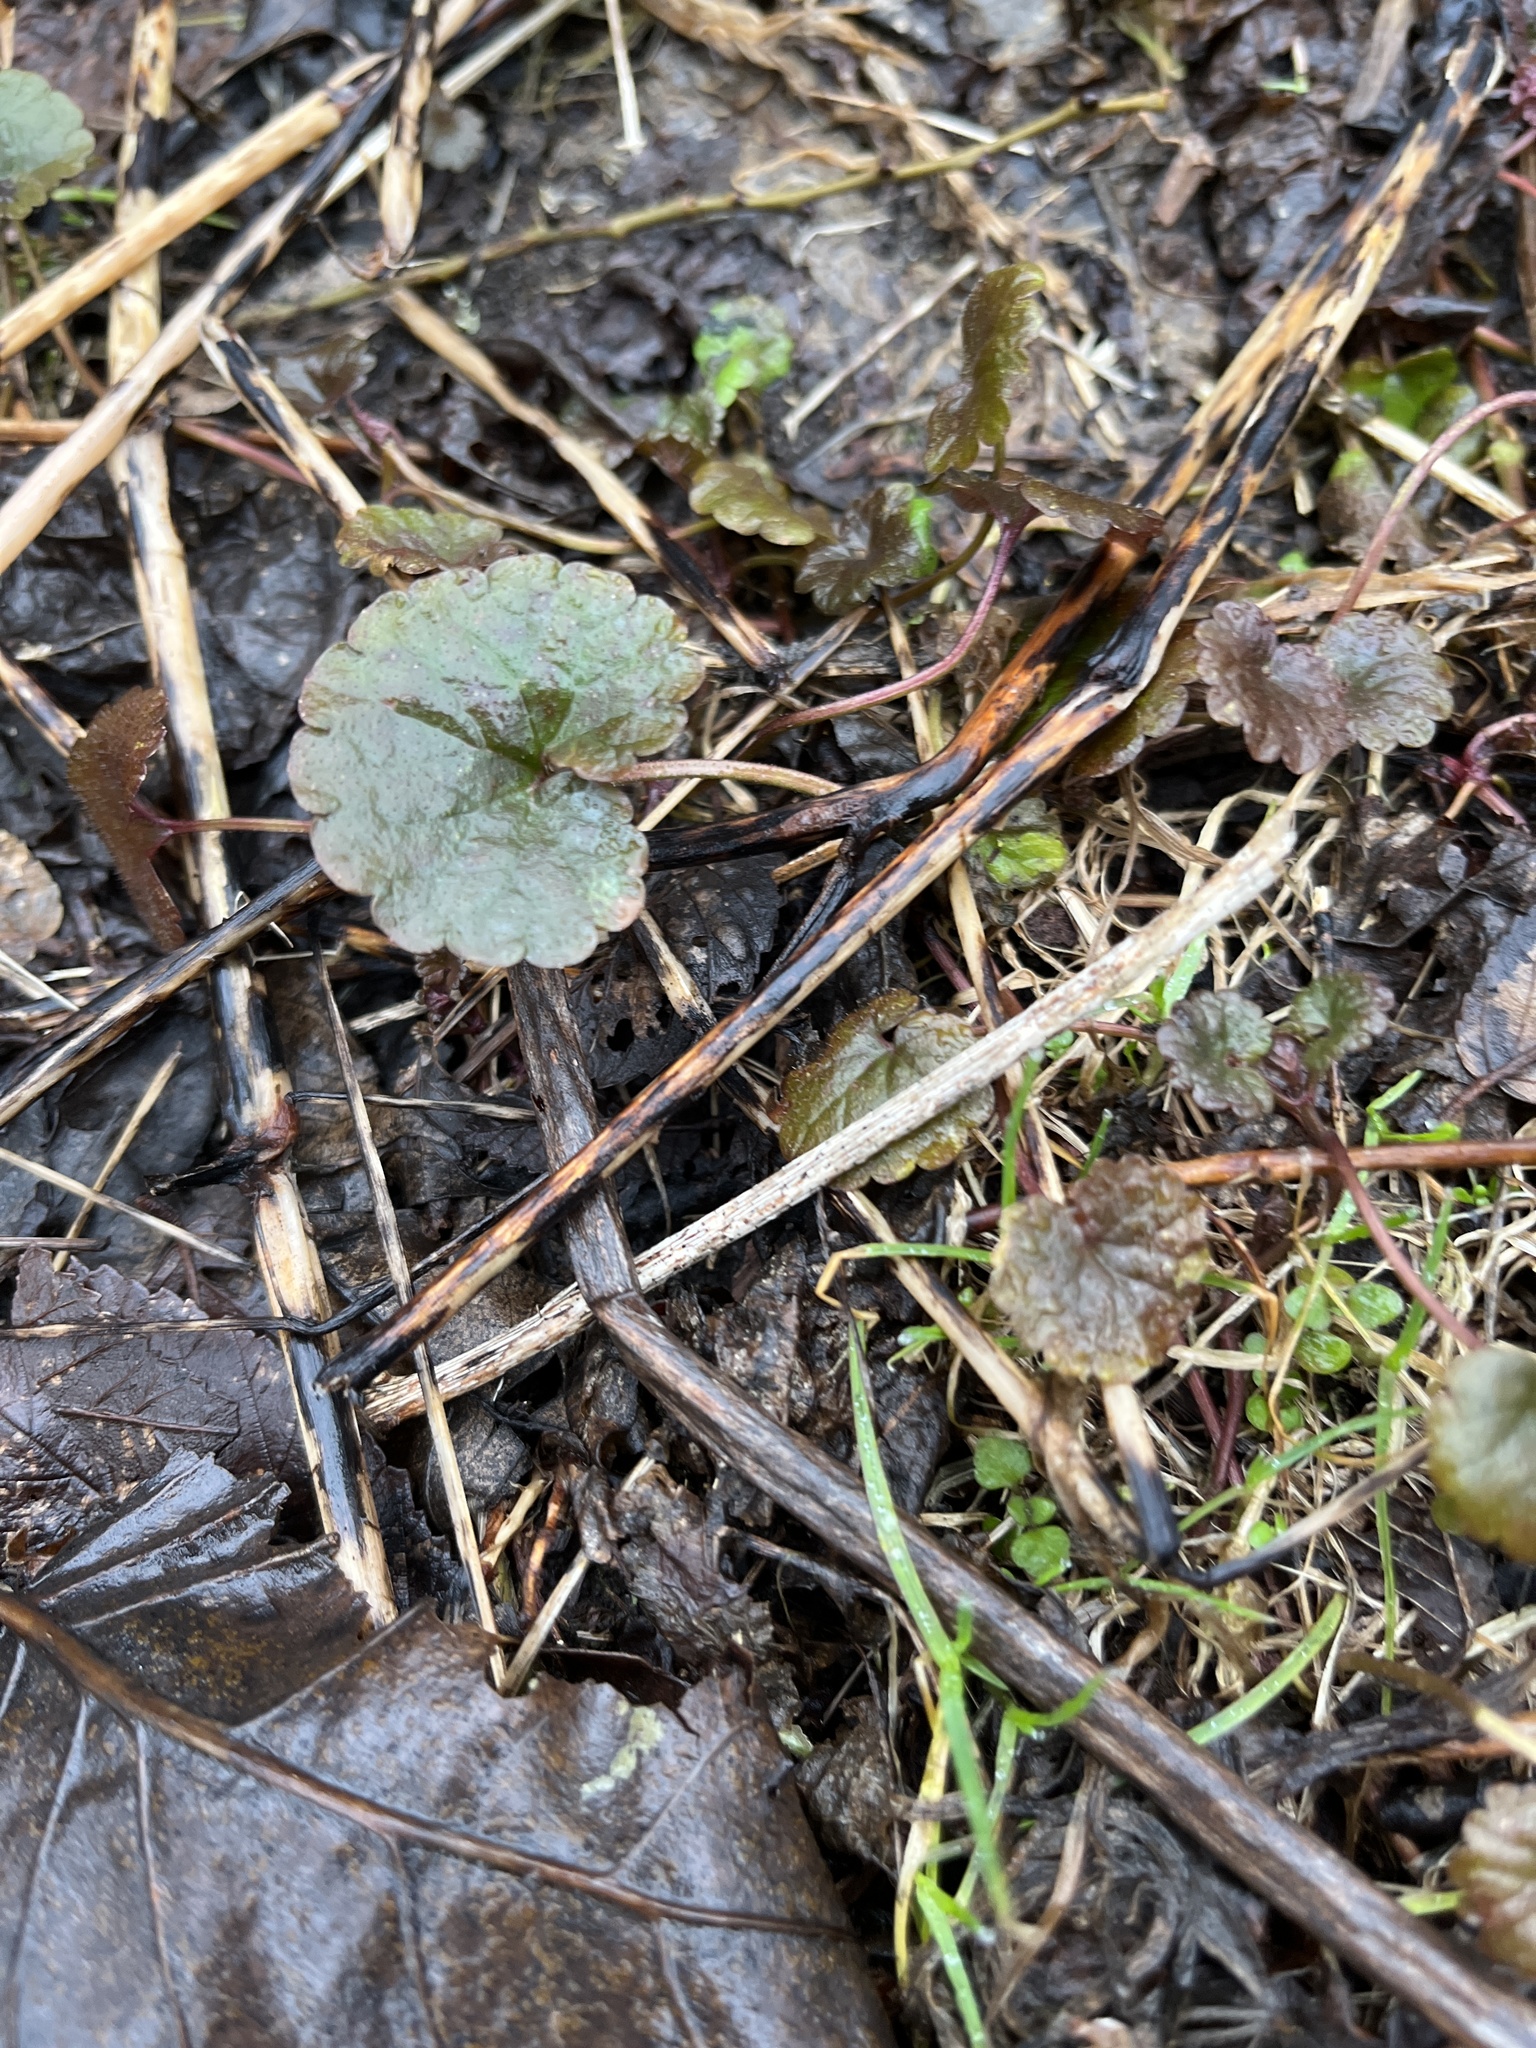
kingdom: Plantae
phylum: Tracheophyta
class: Magnoliopsida
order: Lamiales
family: Lamiaceae
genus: Glechoma
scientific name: Glechoma hederacea
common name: Ground ivy
